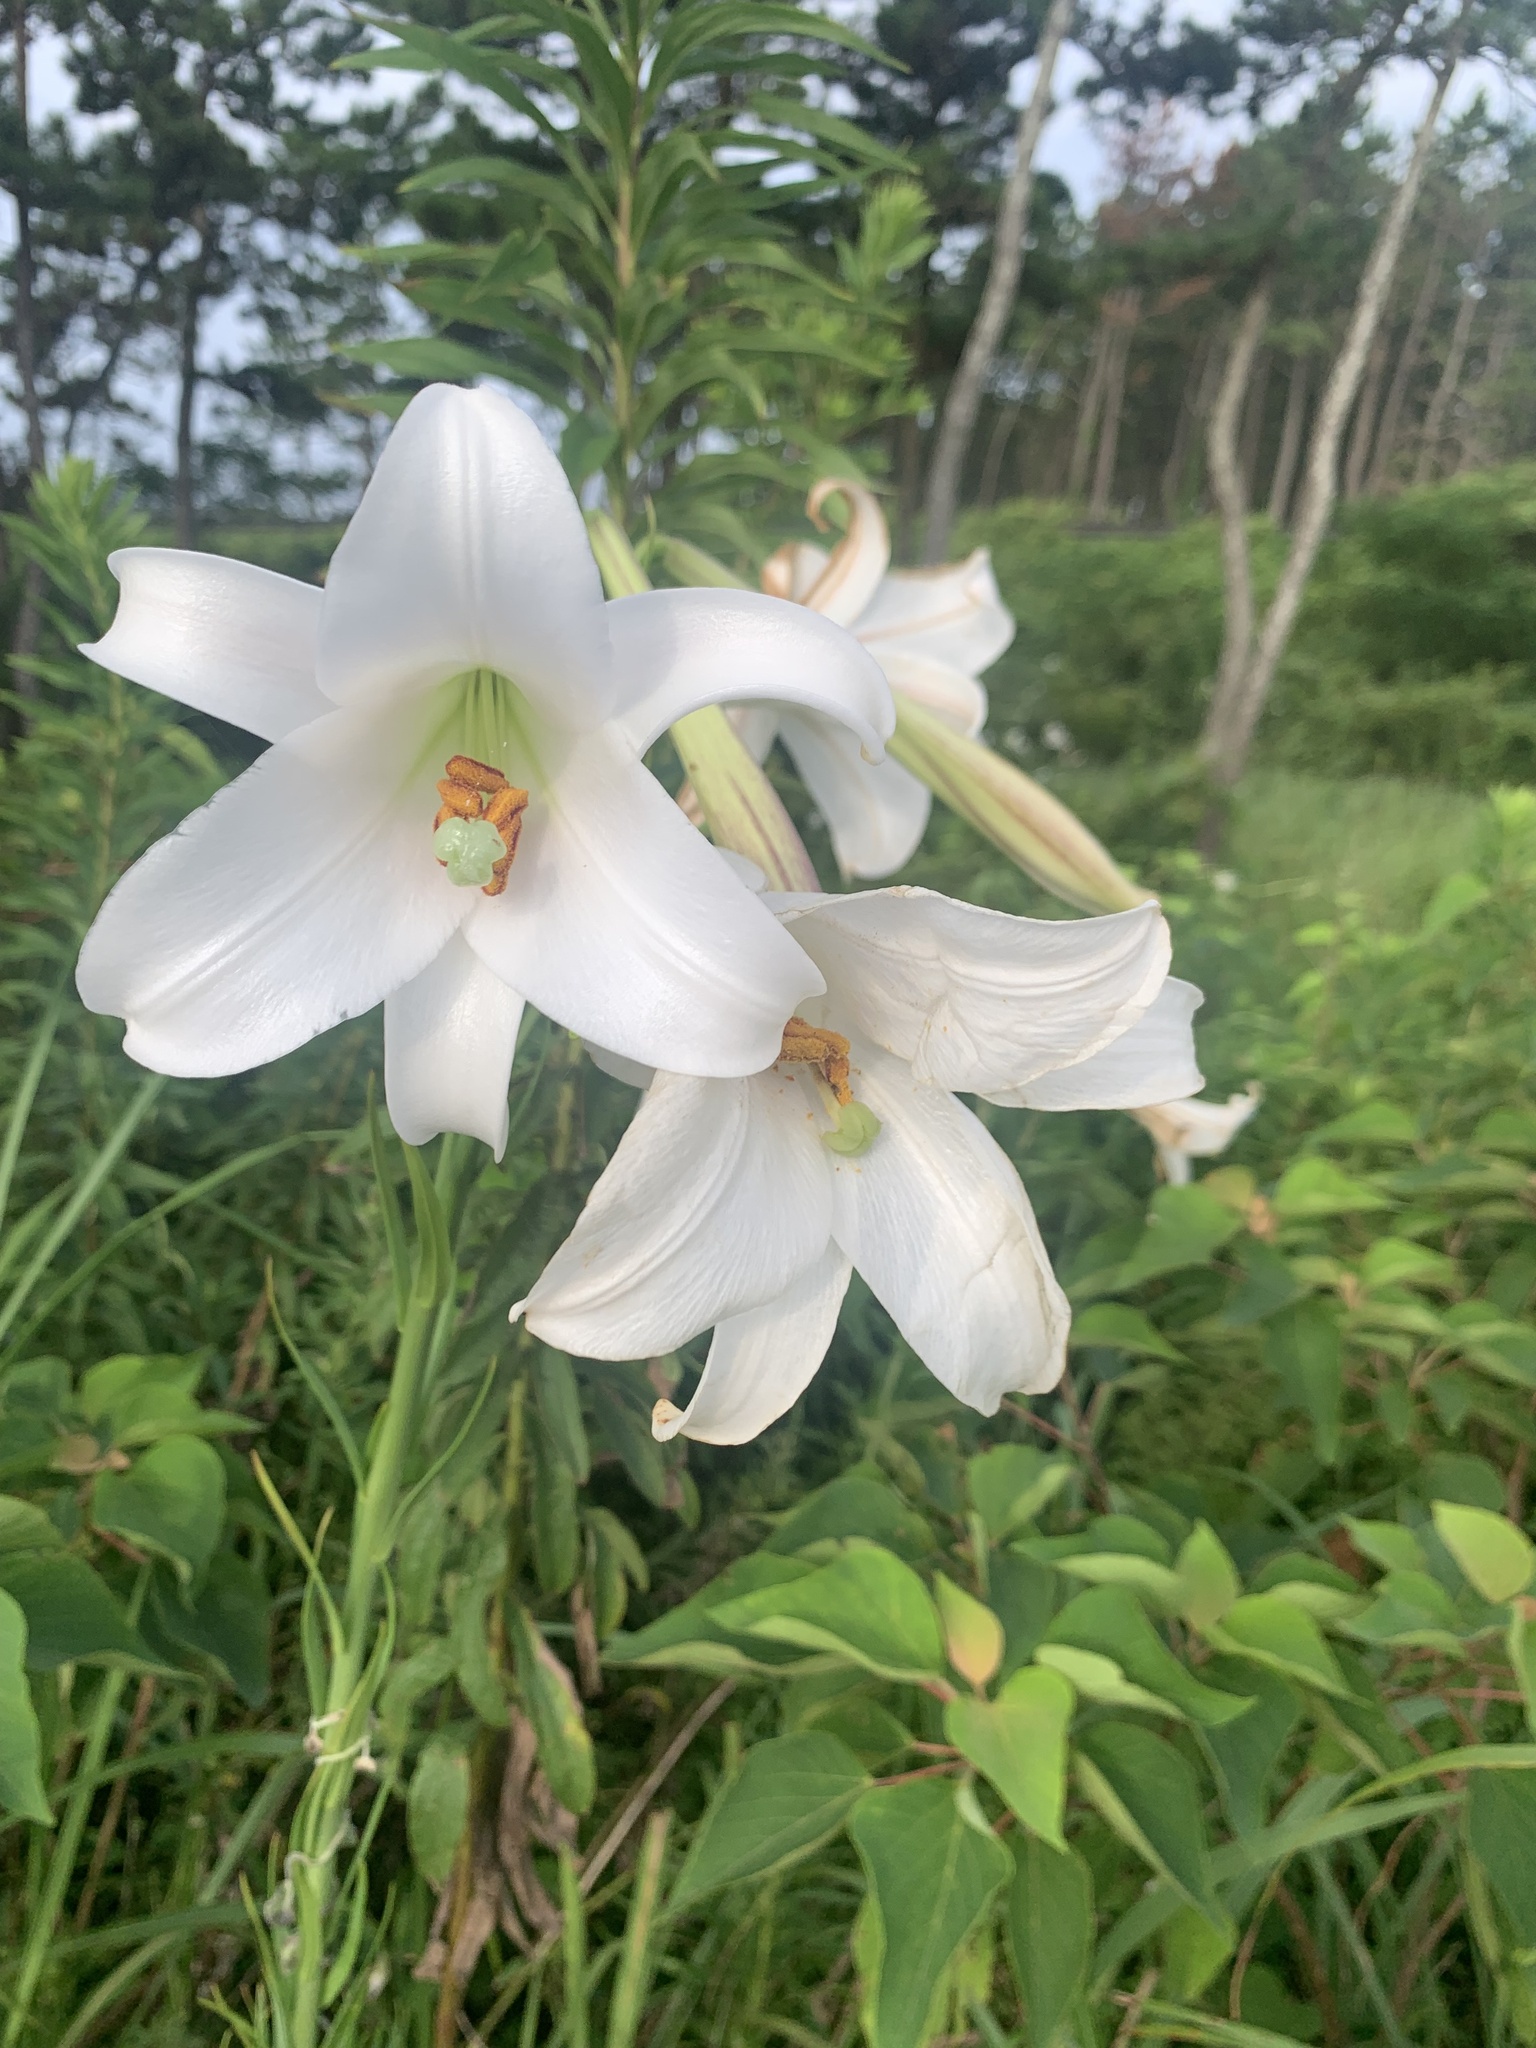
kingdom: Plantae
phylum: Tracheophyta
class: Liliopsida
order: Liliales
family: Liliaceae
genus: Lilium
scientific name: Lilium formosanum
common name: Formosa lily
